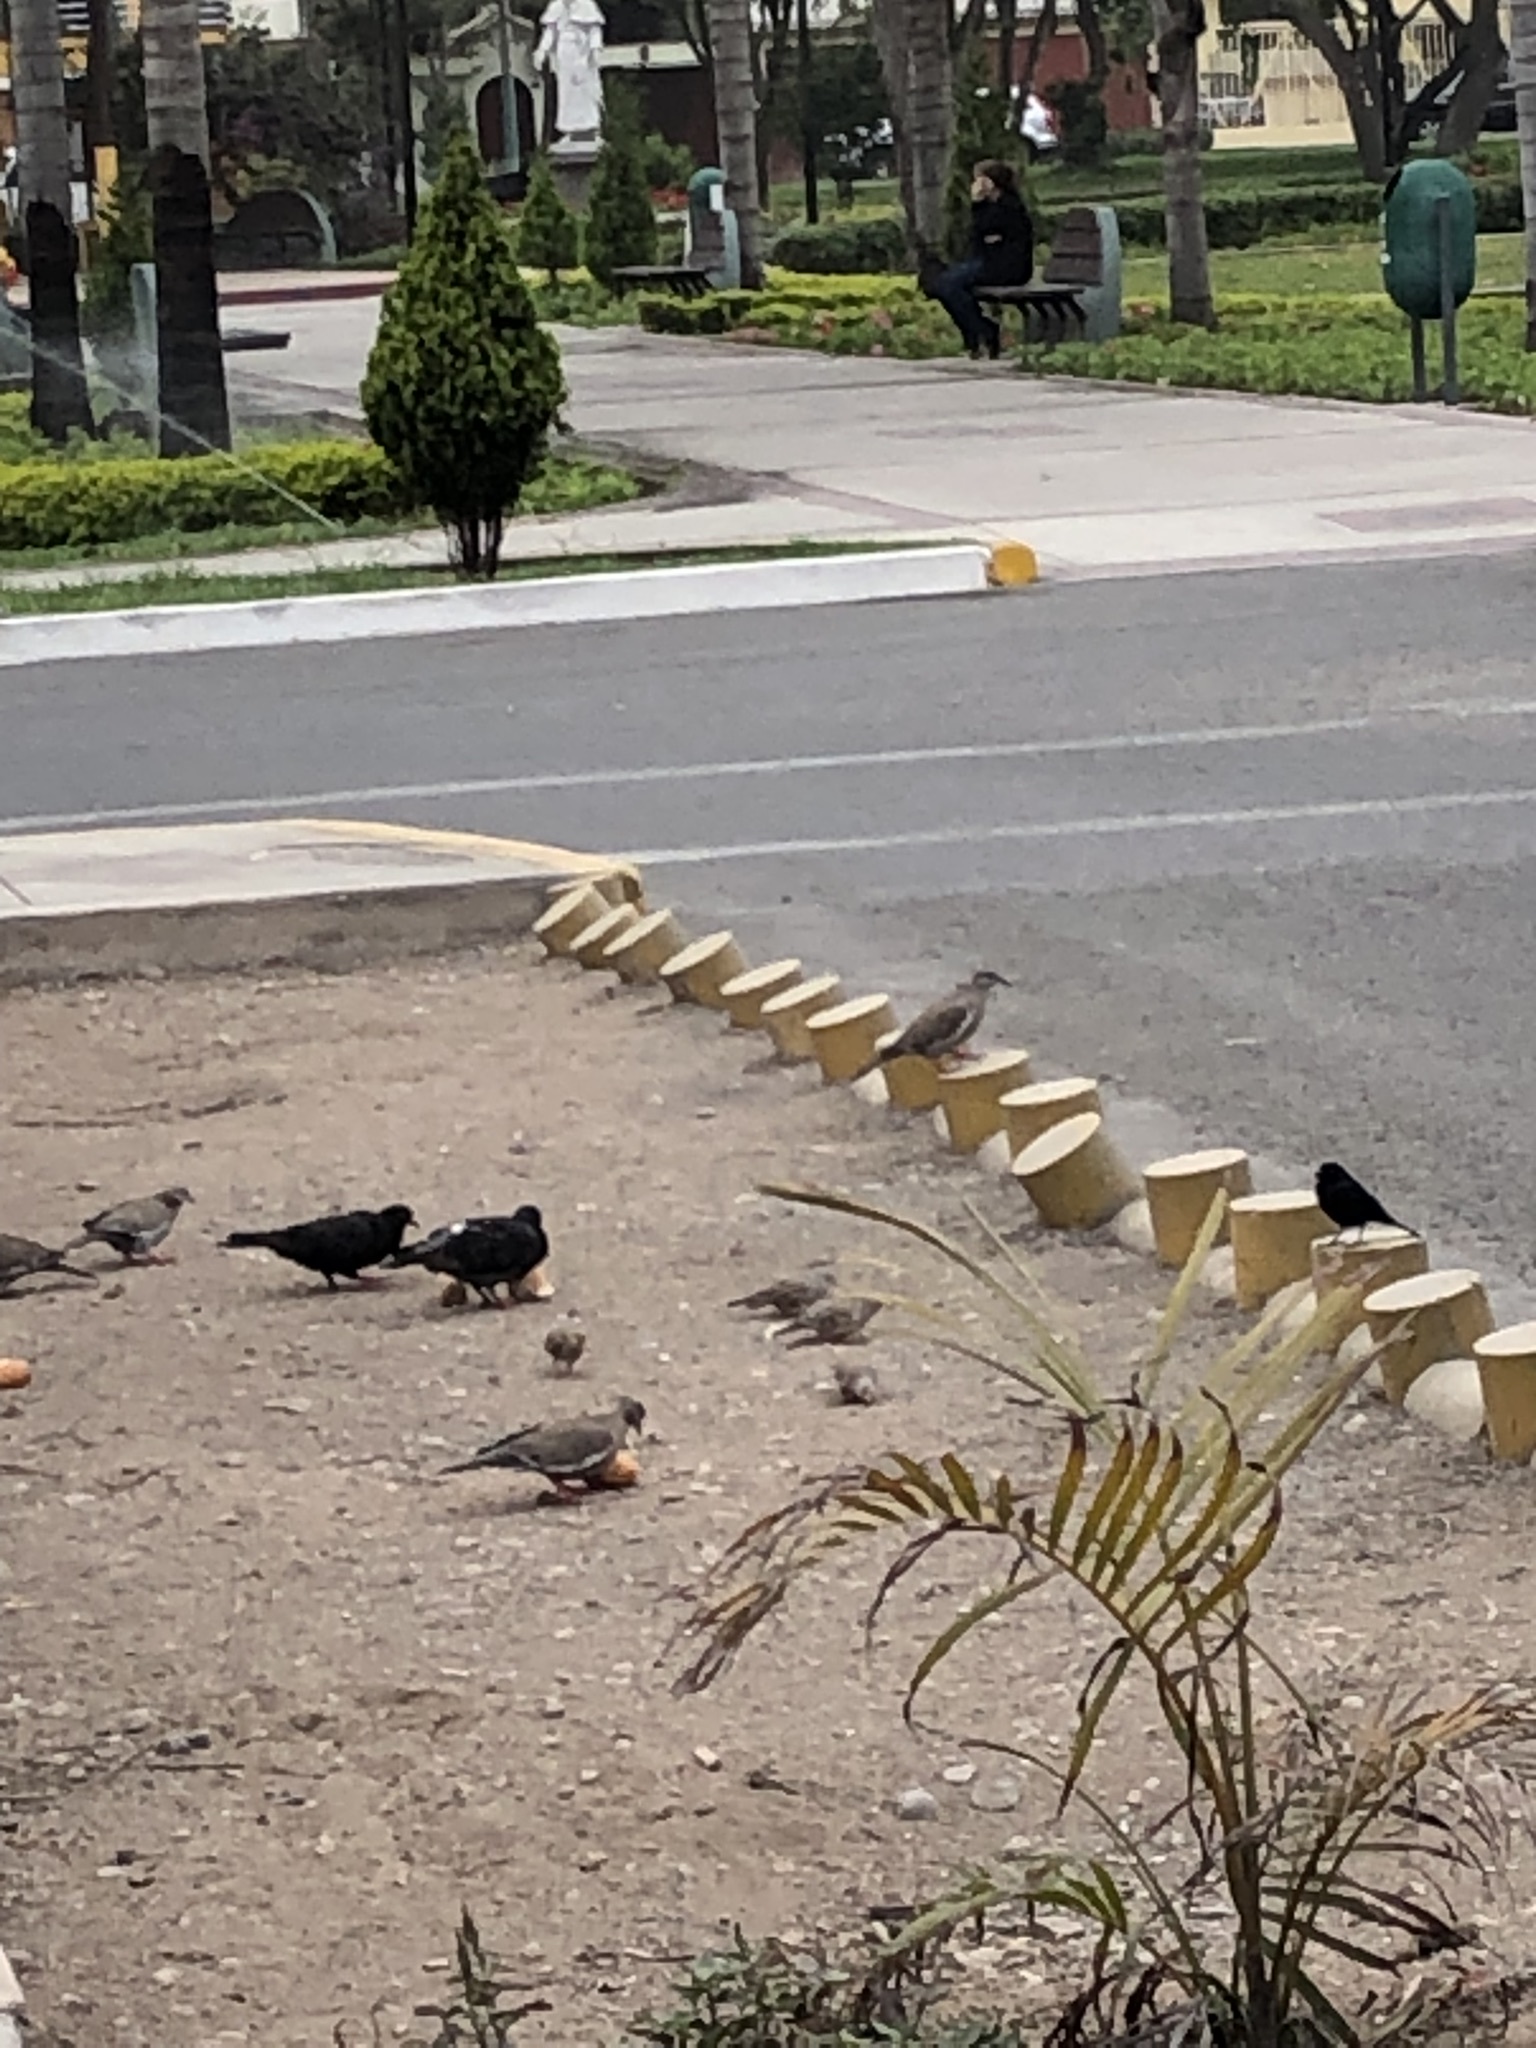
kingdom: Animalia
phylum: Chordata
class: Aves
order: Columbiformes
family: Columbidae
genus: Zenaida
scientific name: Zenaida meloda
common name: West peruvian dove
